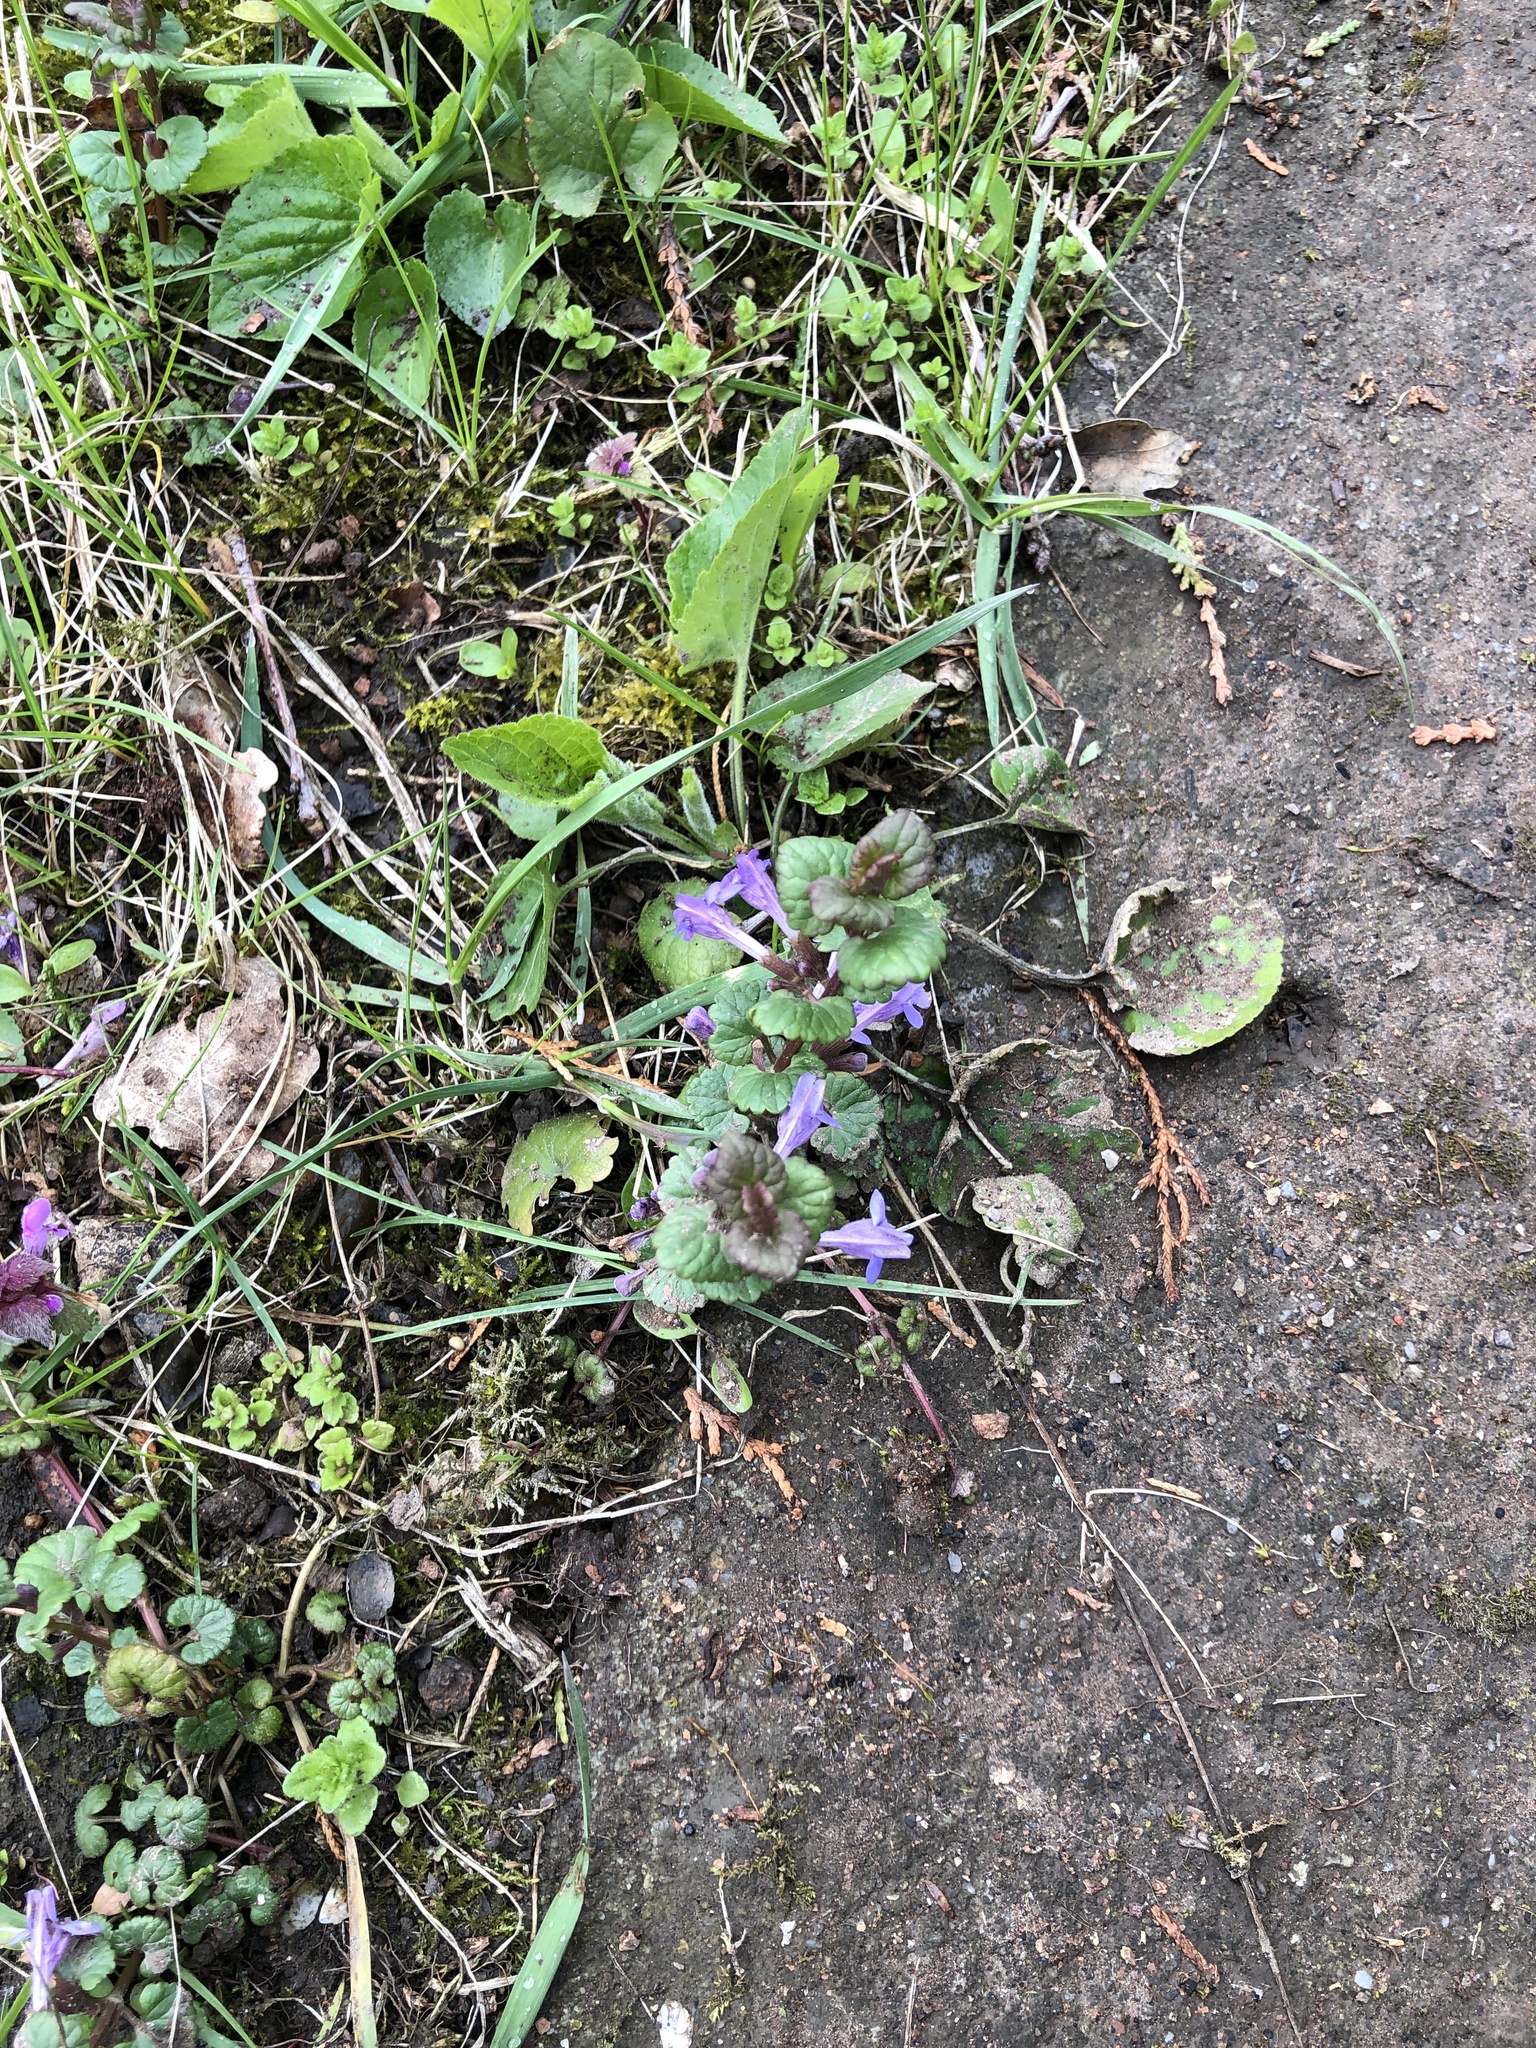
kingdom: Plantae
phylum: Tracheophyta
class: Magnoliopsida
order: Lamiales
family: Lamiaceae
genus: Glechoma
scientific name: Glechoma hederacea
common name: Ground ivy
